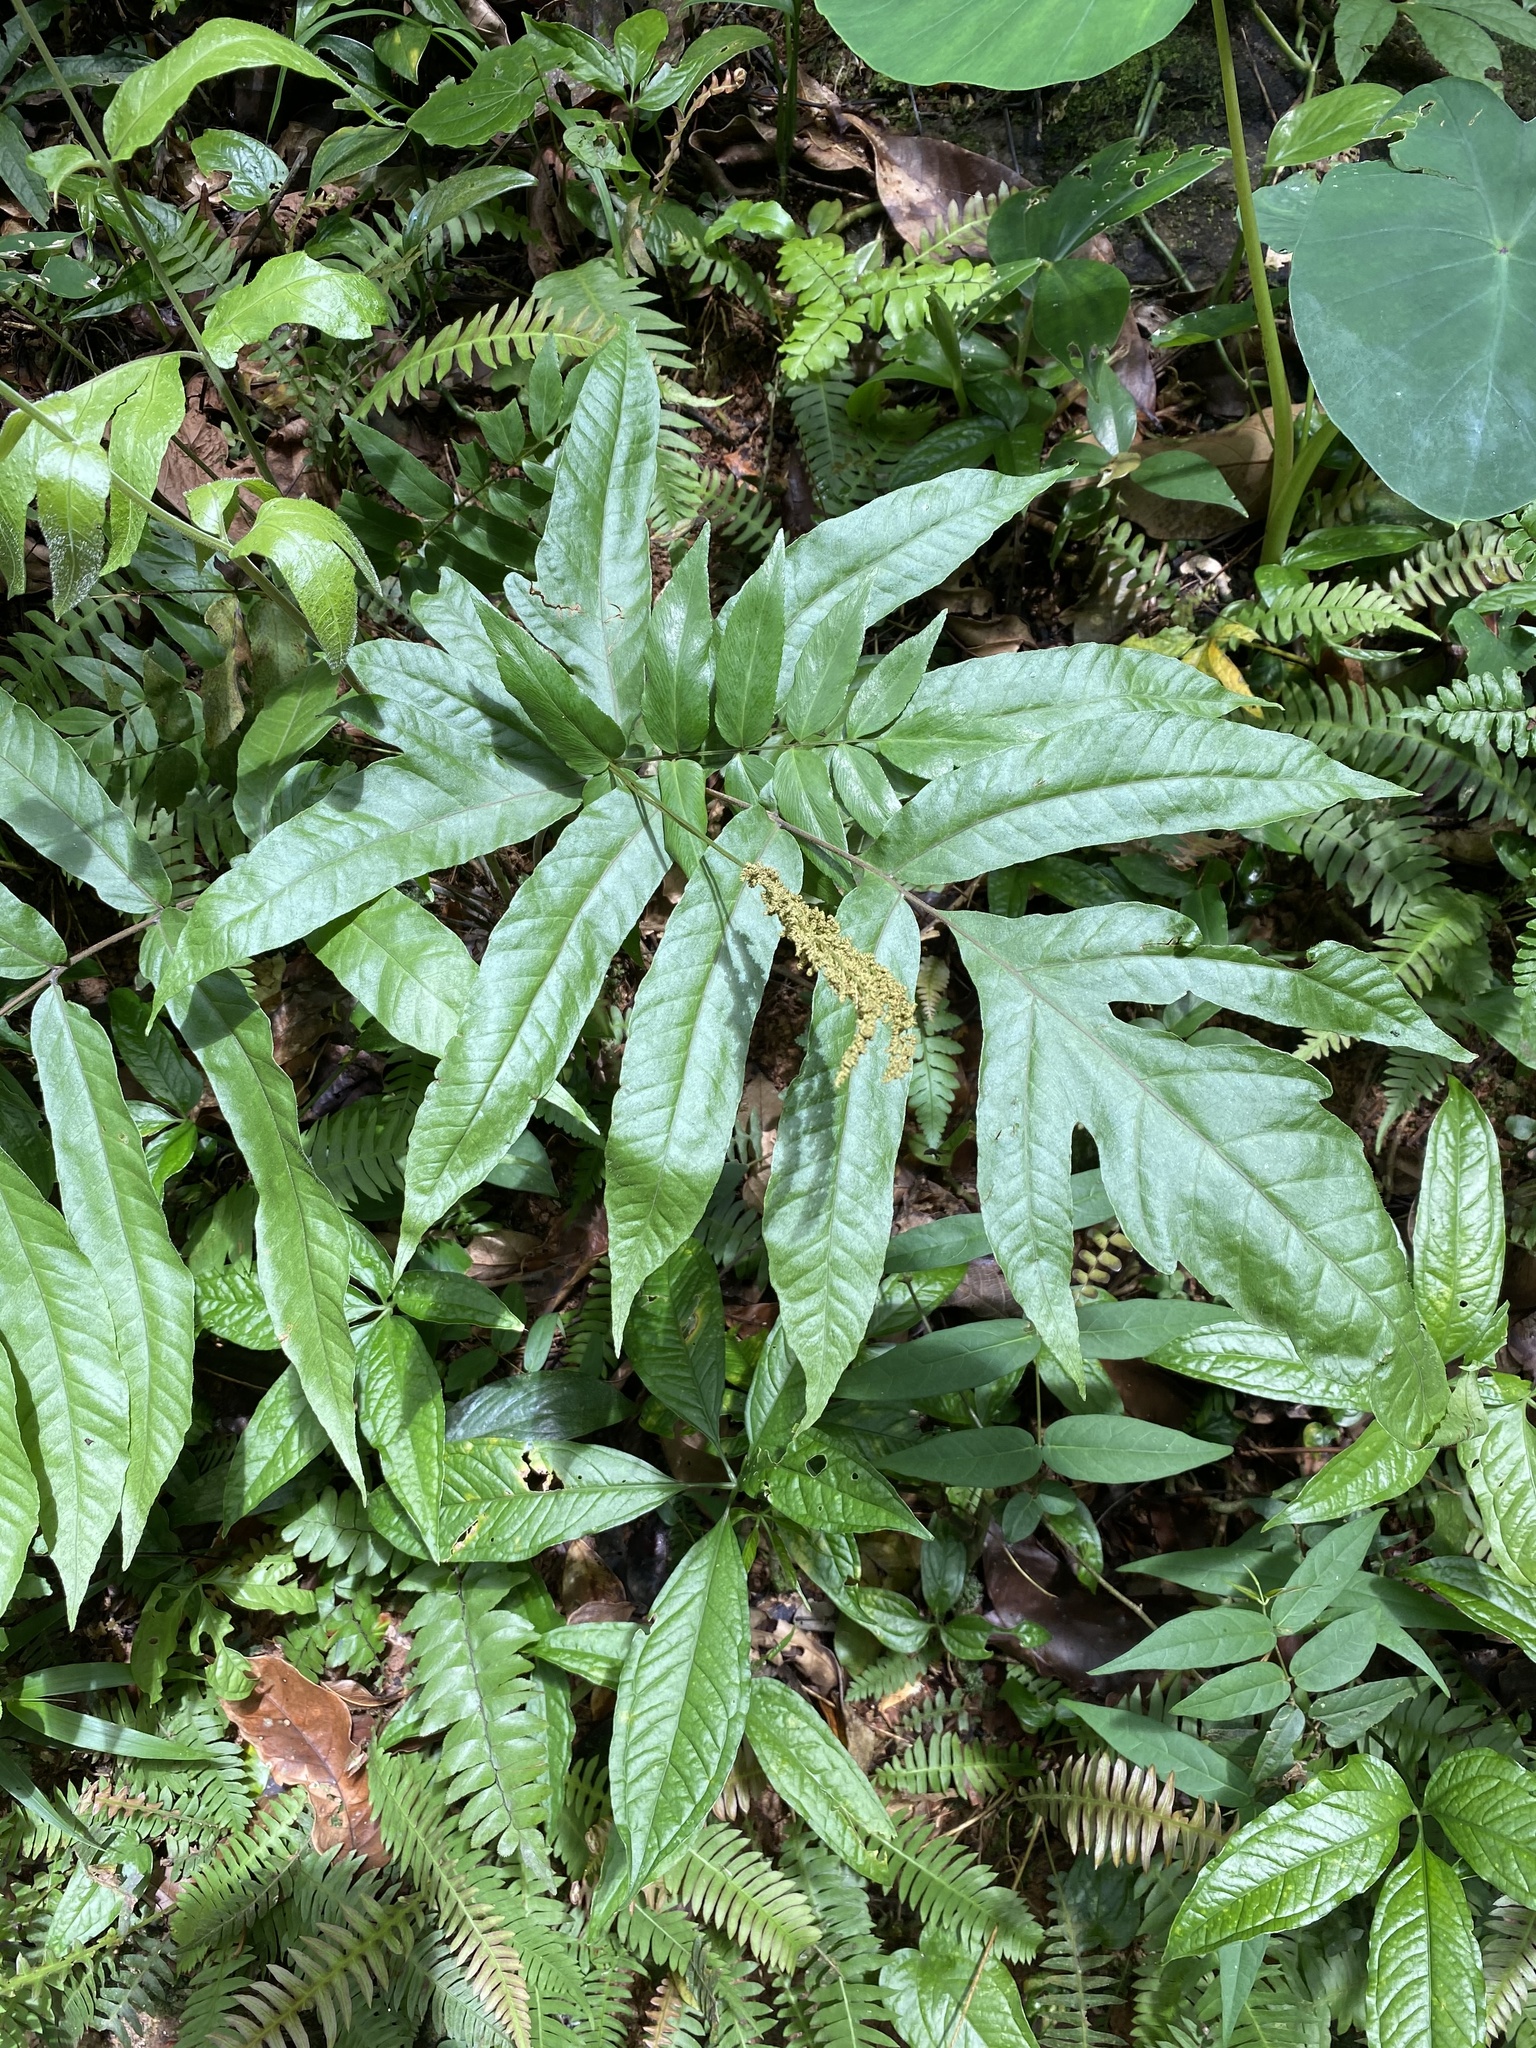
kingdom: Plantae
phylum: Tracheophyta
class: Polypodiopsida
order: Schizaeales
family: Anemiaceae
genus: Anemia
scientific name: Anemia phyllitidis
